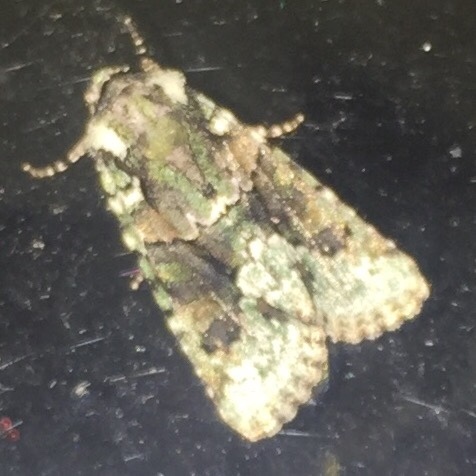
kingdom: Animalia
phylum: Arthropoda
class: Insecta
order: Lepidoptera
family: Noctuidae
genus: Lacinipolia
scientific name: Lacinipolia explicata
